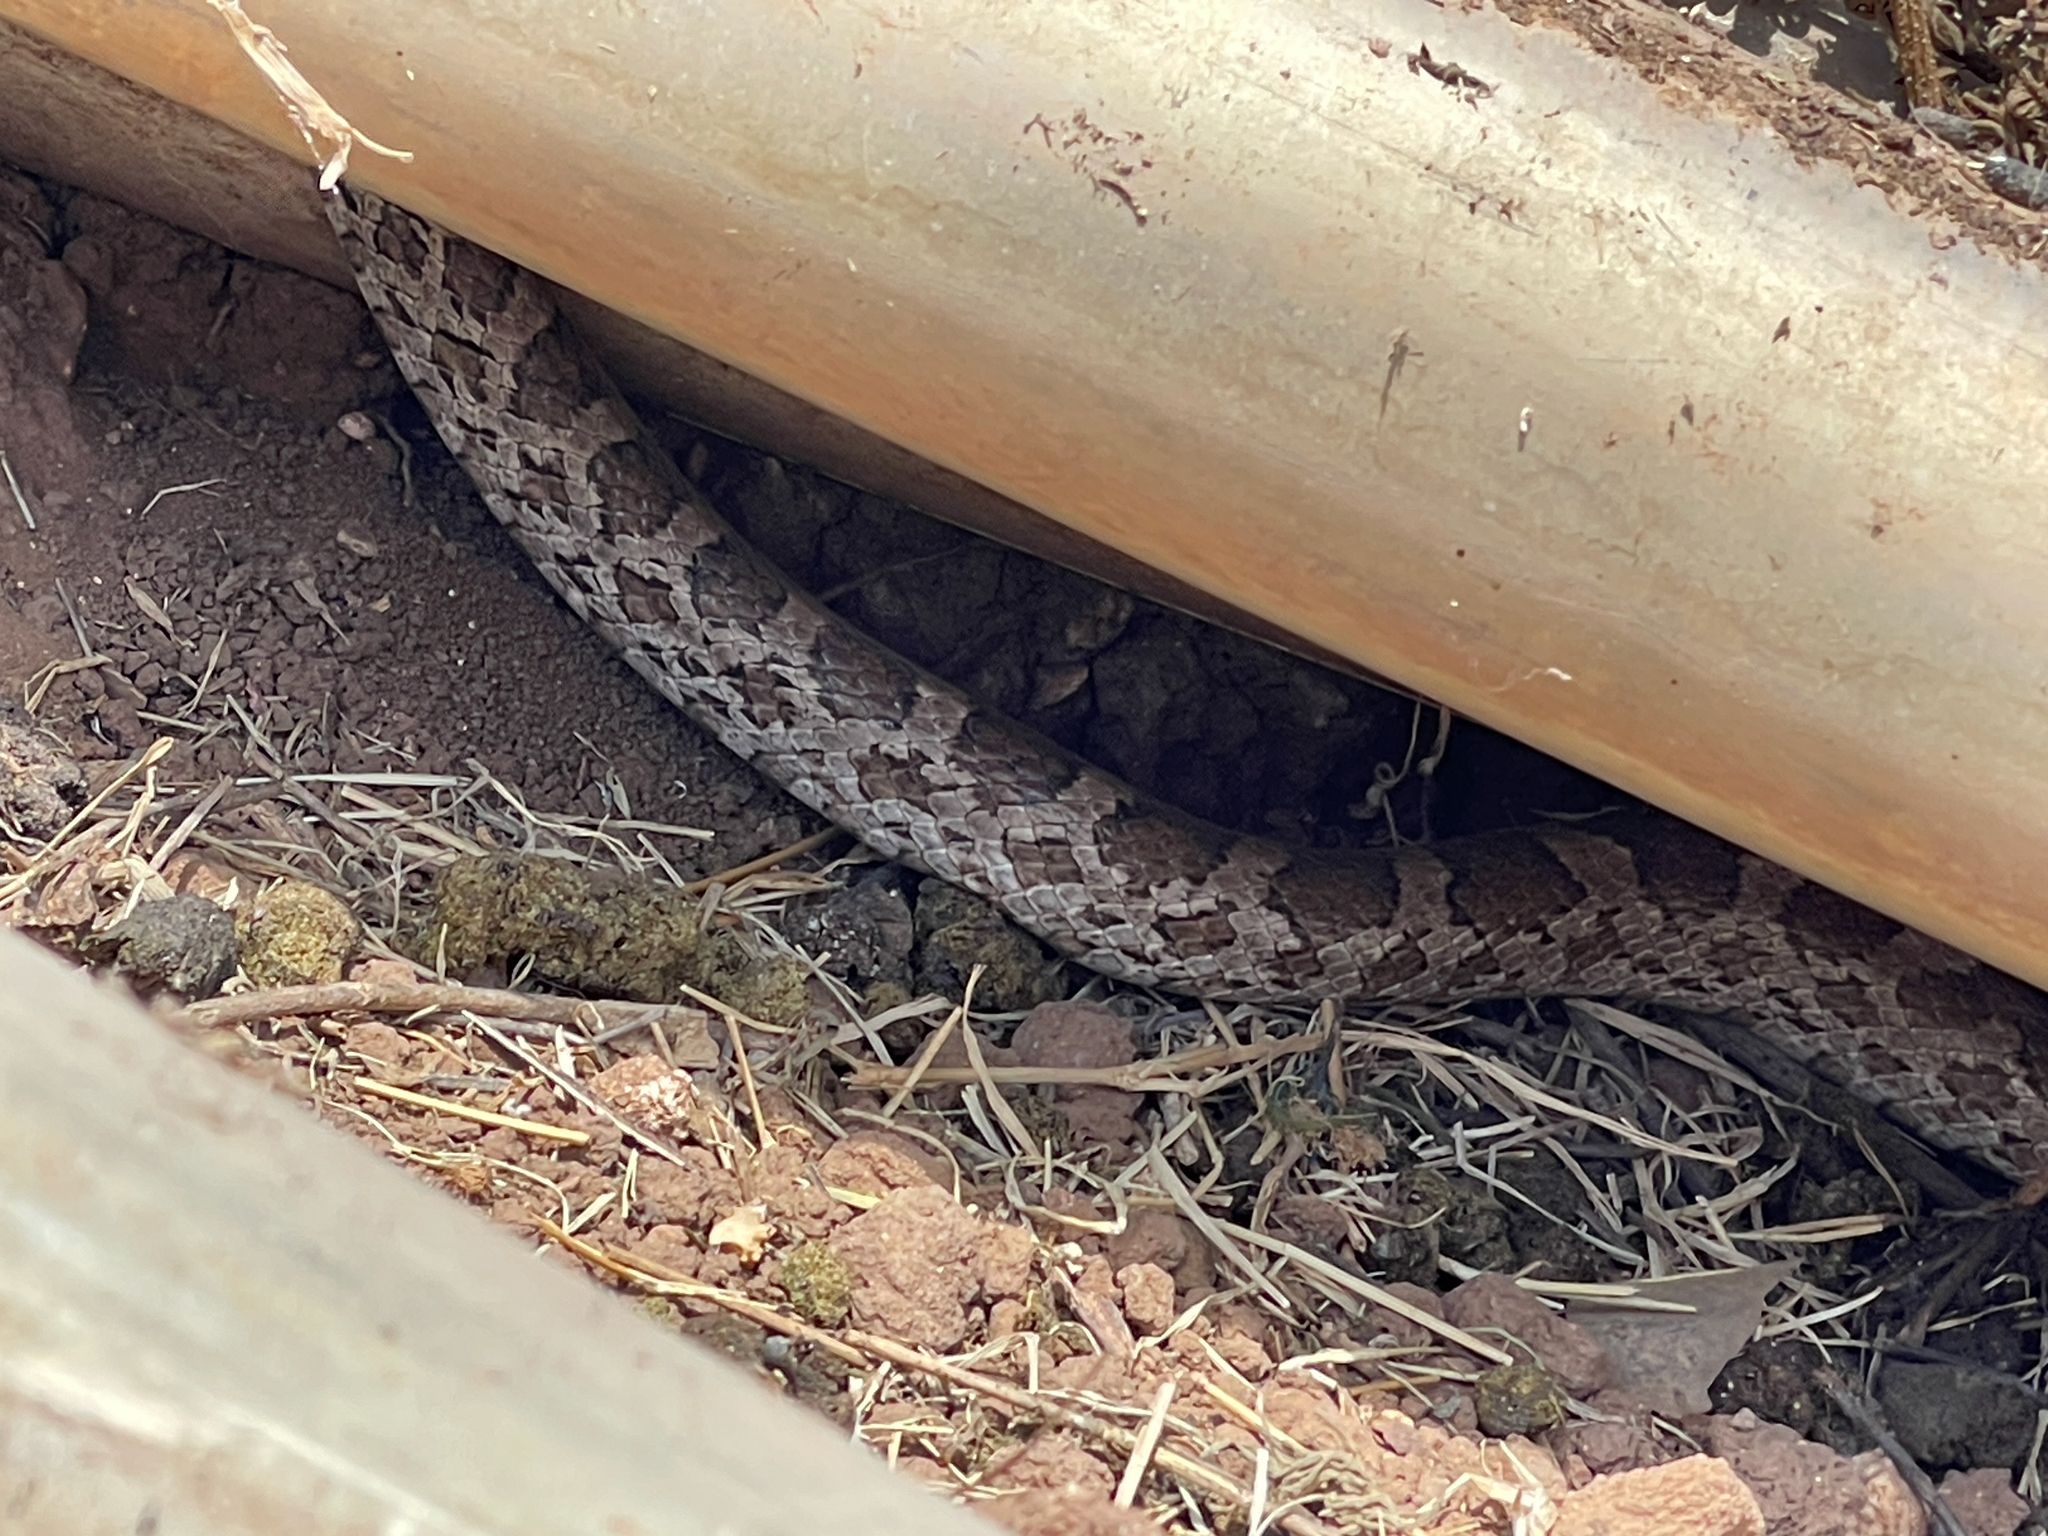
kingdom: Animalia
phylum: Chordata
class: Squamata
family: Colubridae
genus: Pantherophis
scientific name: Pantherophis emoryi
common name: Great plains rat snake
